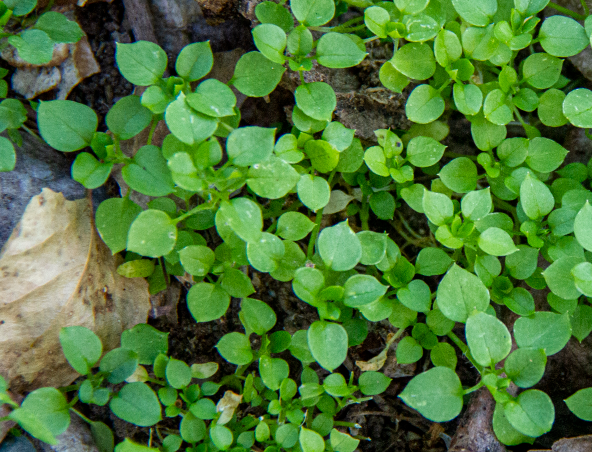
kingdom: Plantae
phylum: Tracheophyta
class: Magnoliopsida
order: Caryophyllales
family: Caryophyllaceae
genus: Stellaria
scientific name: Stellaria media
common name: Common chickweed
